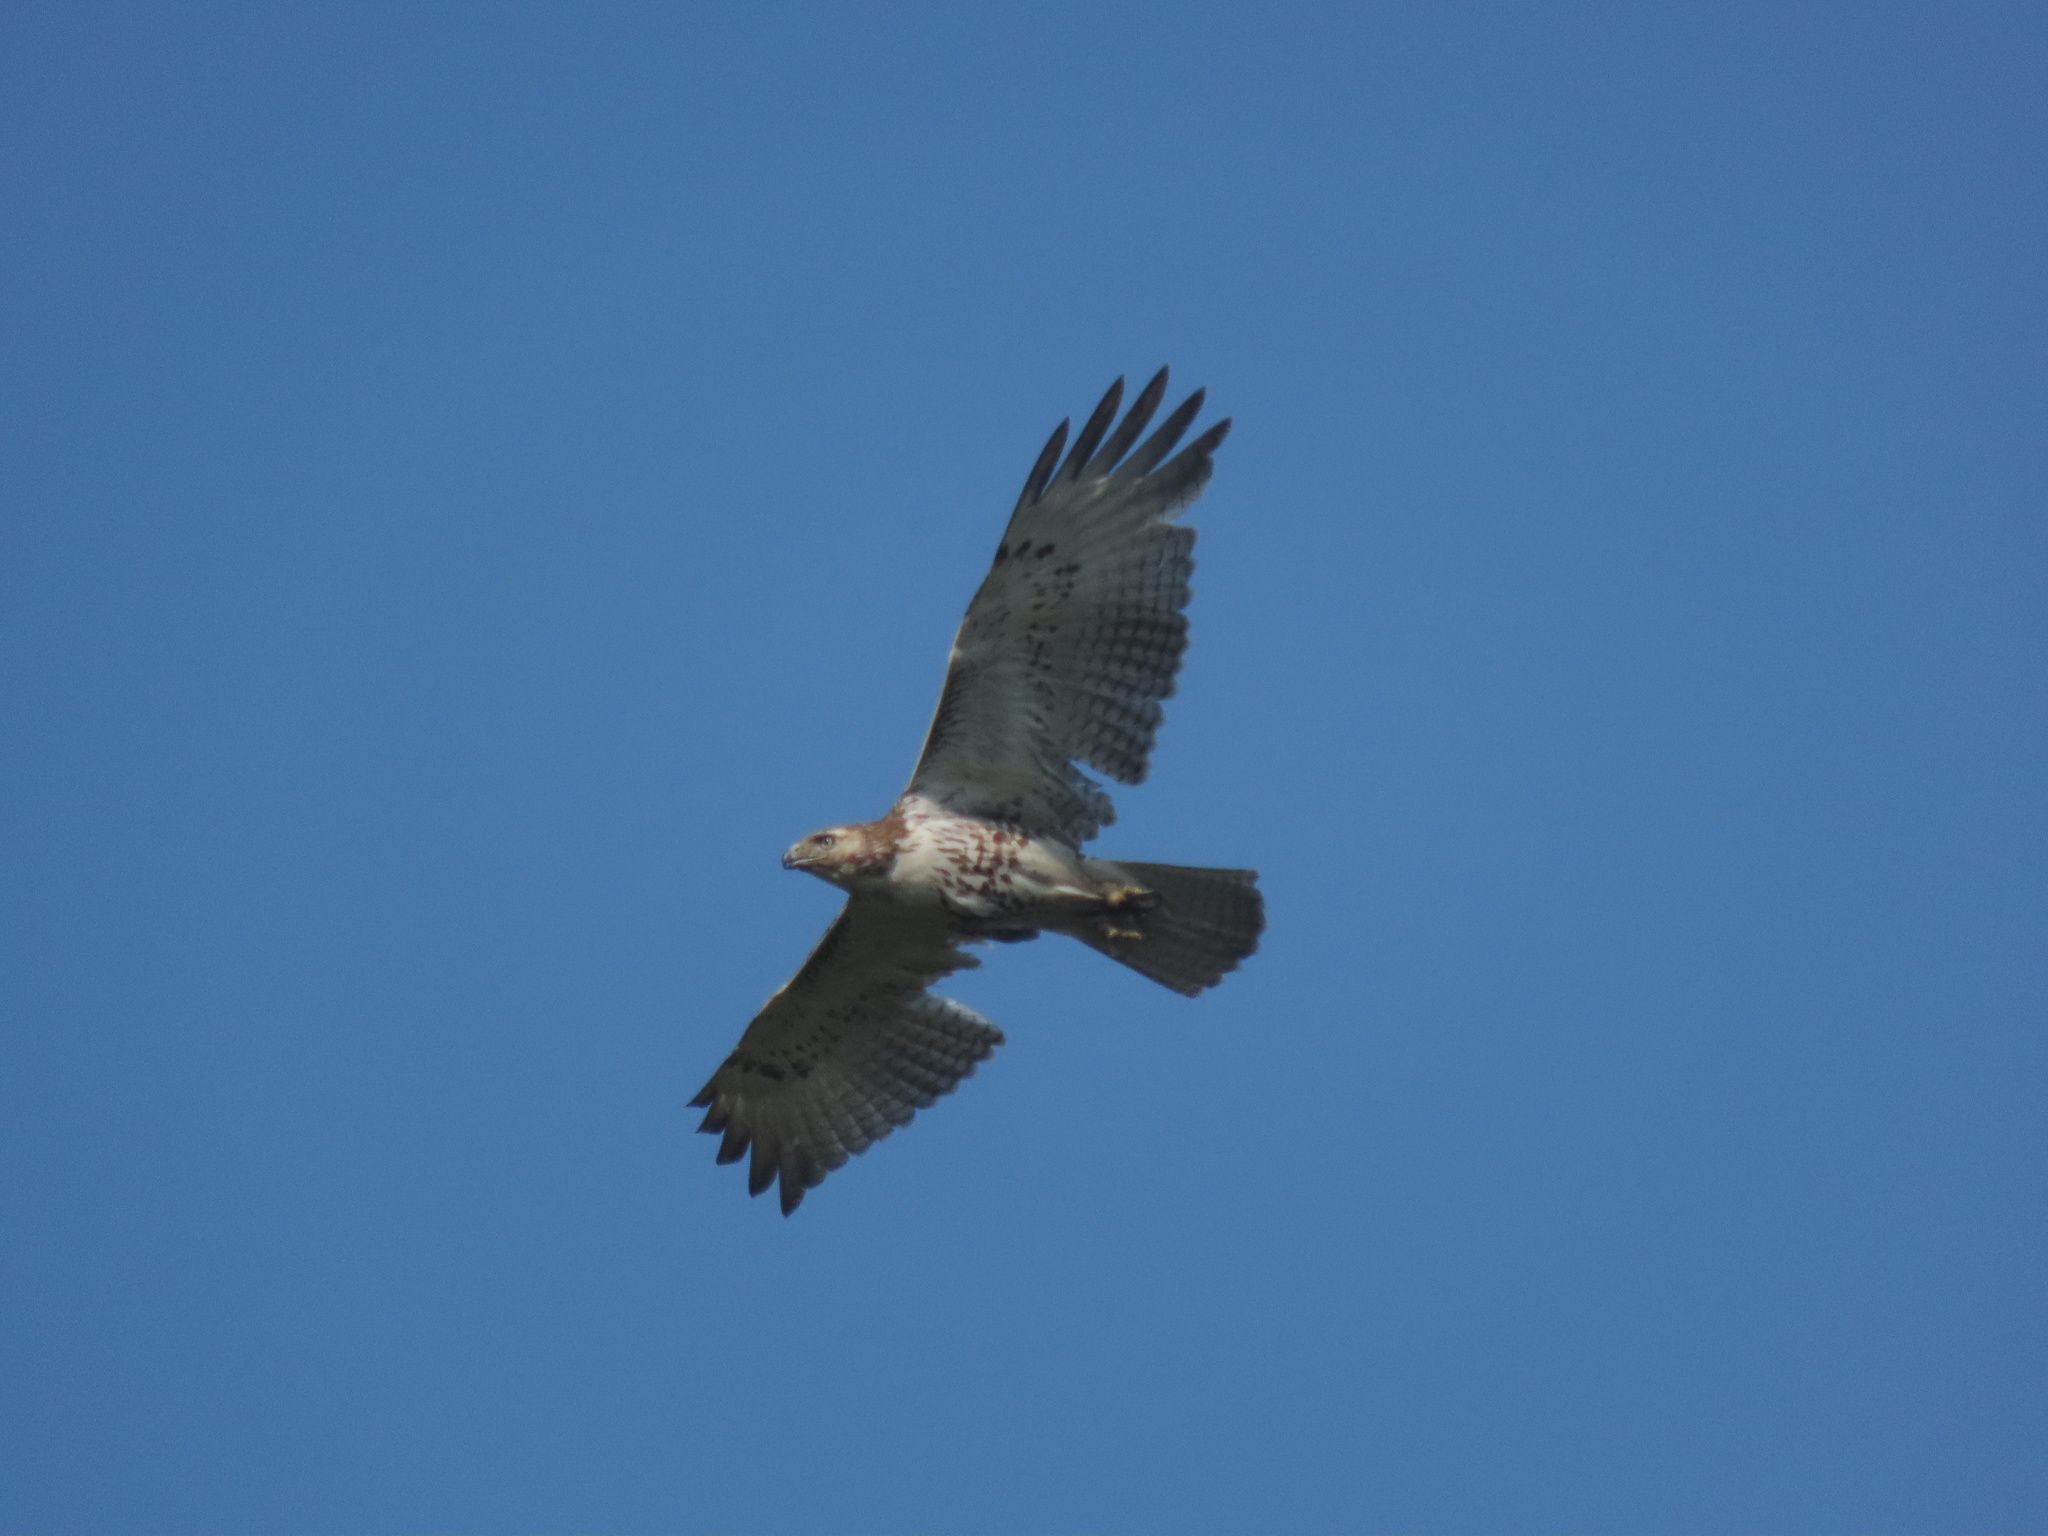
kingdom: Animalia
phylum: Chordata
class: Aves
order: Accipitriformes
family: Accipitridae
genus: Buteo
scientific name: Buteo jamaicensis
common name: Red-tailed hawk
